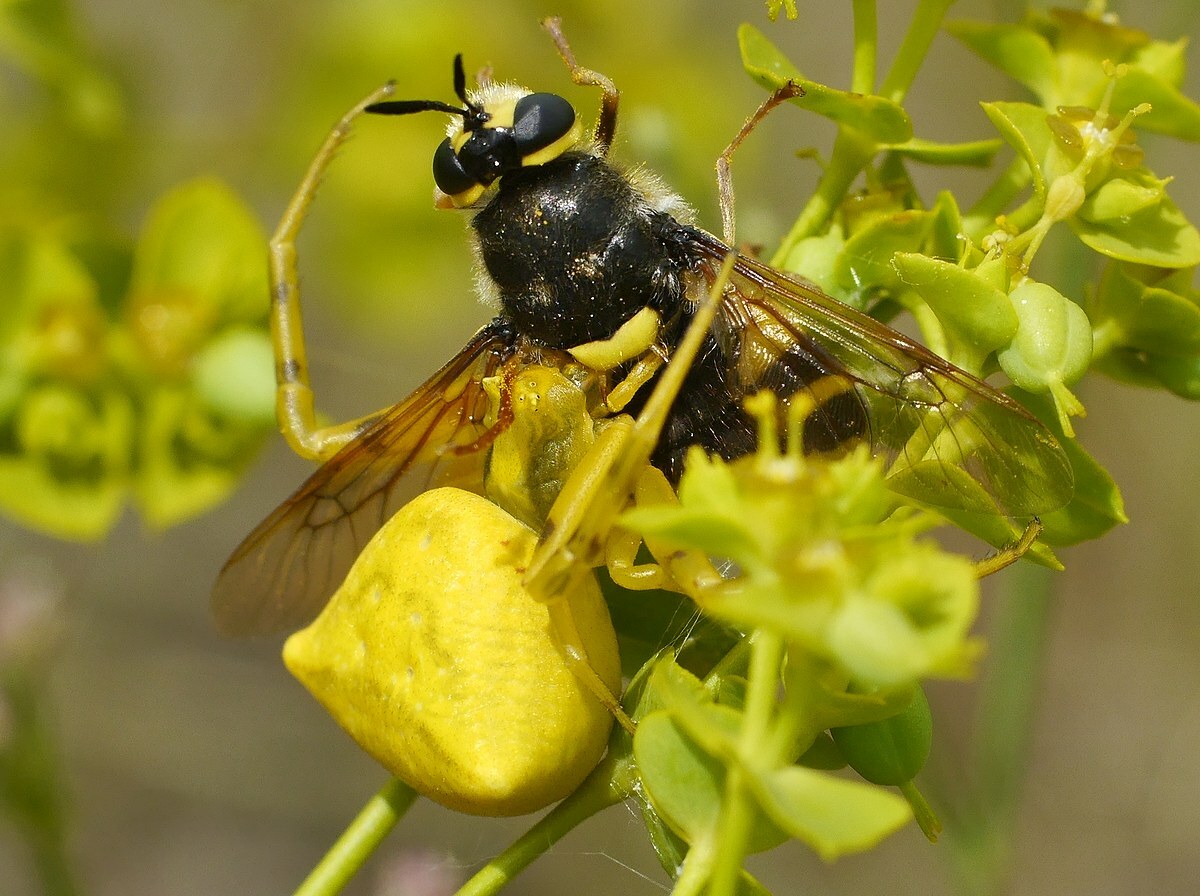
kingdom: Animalia
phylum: Arthropoda
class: Insecta
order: Diptera
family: Stratiomyidae
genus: Stratiomys
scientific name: Stratiomys chamaeleon
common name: Clubbed general
